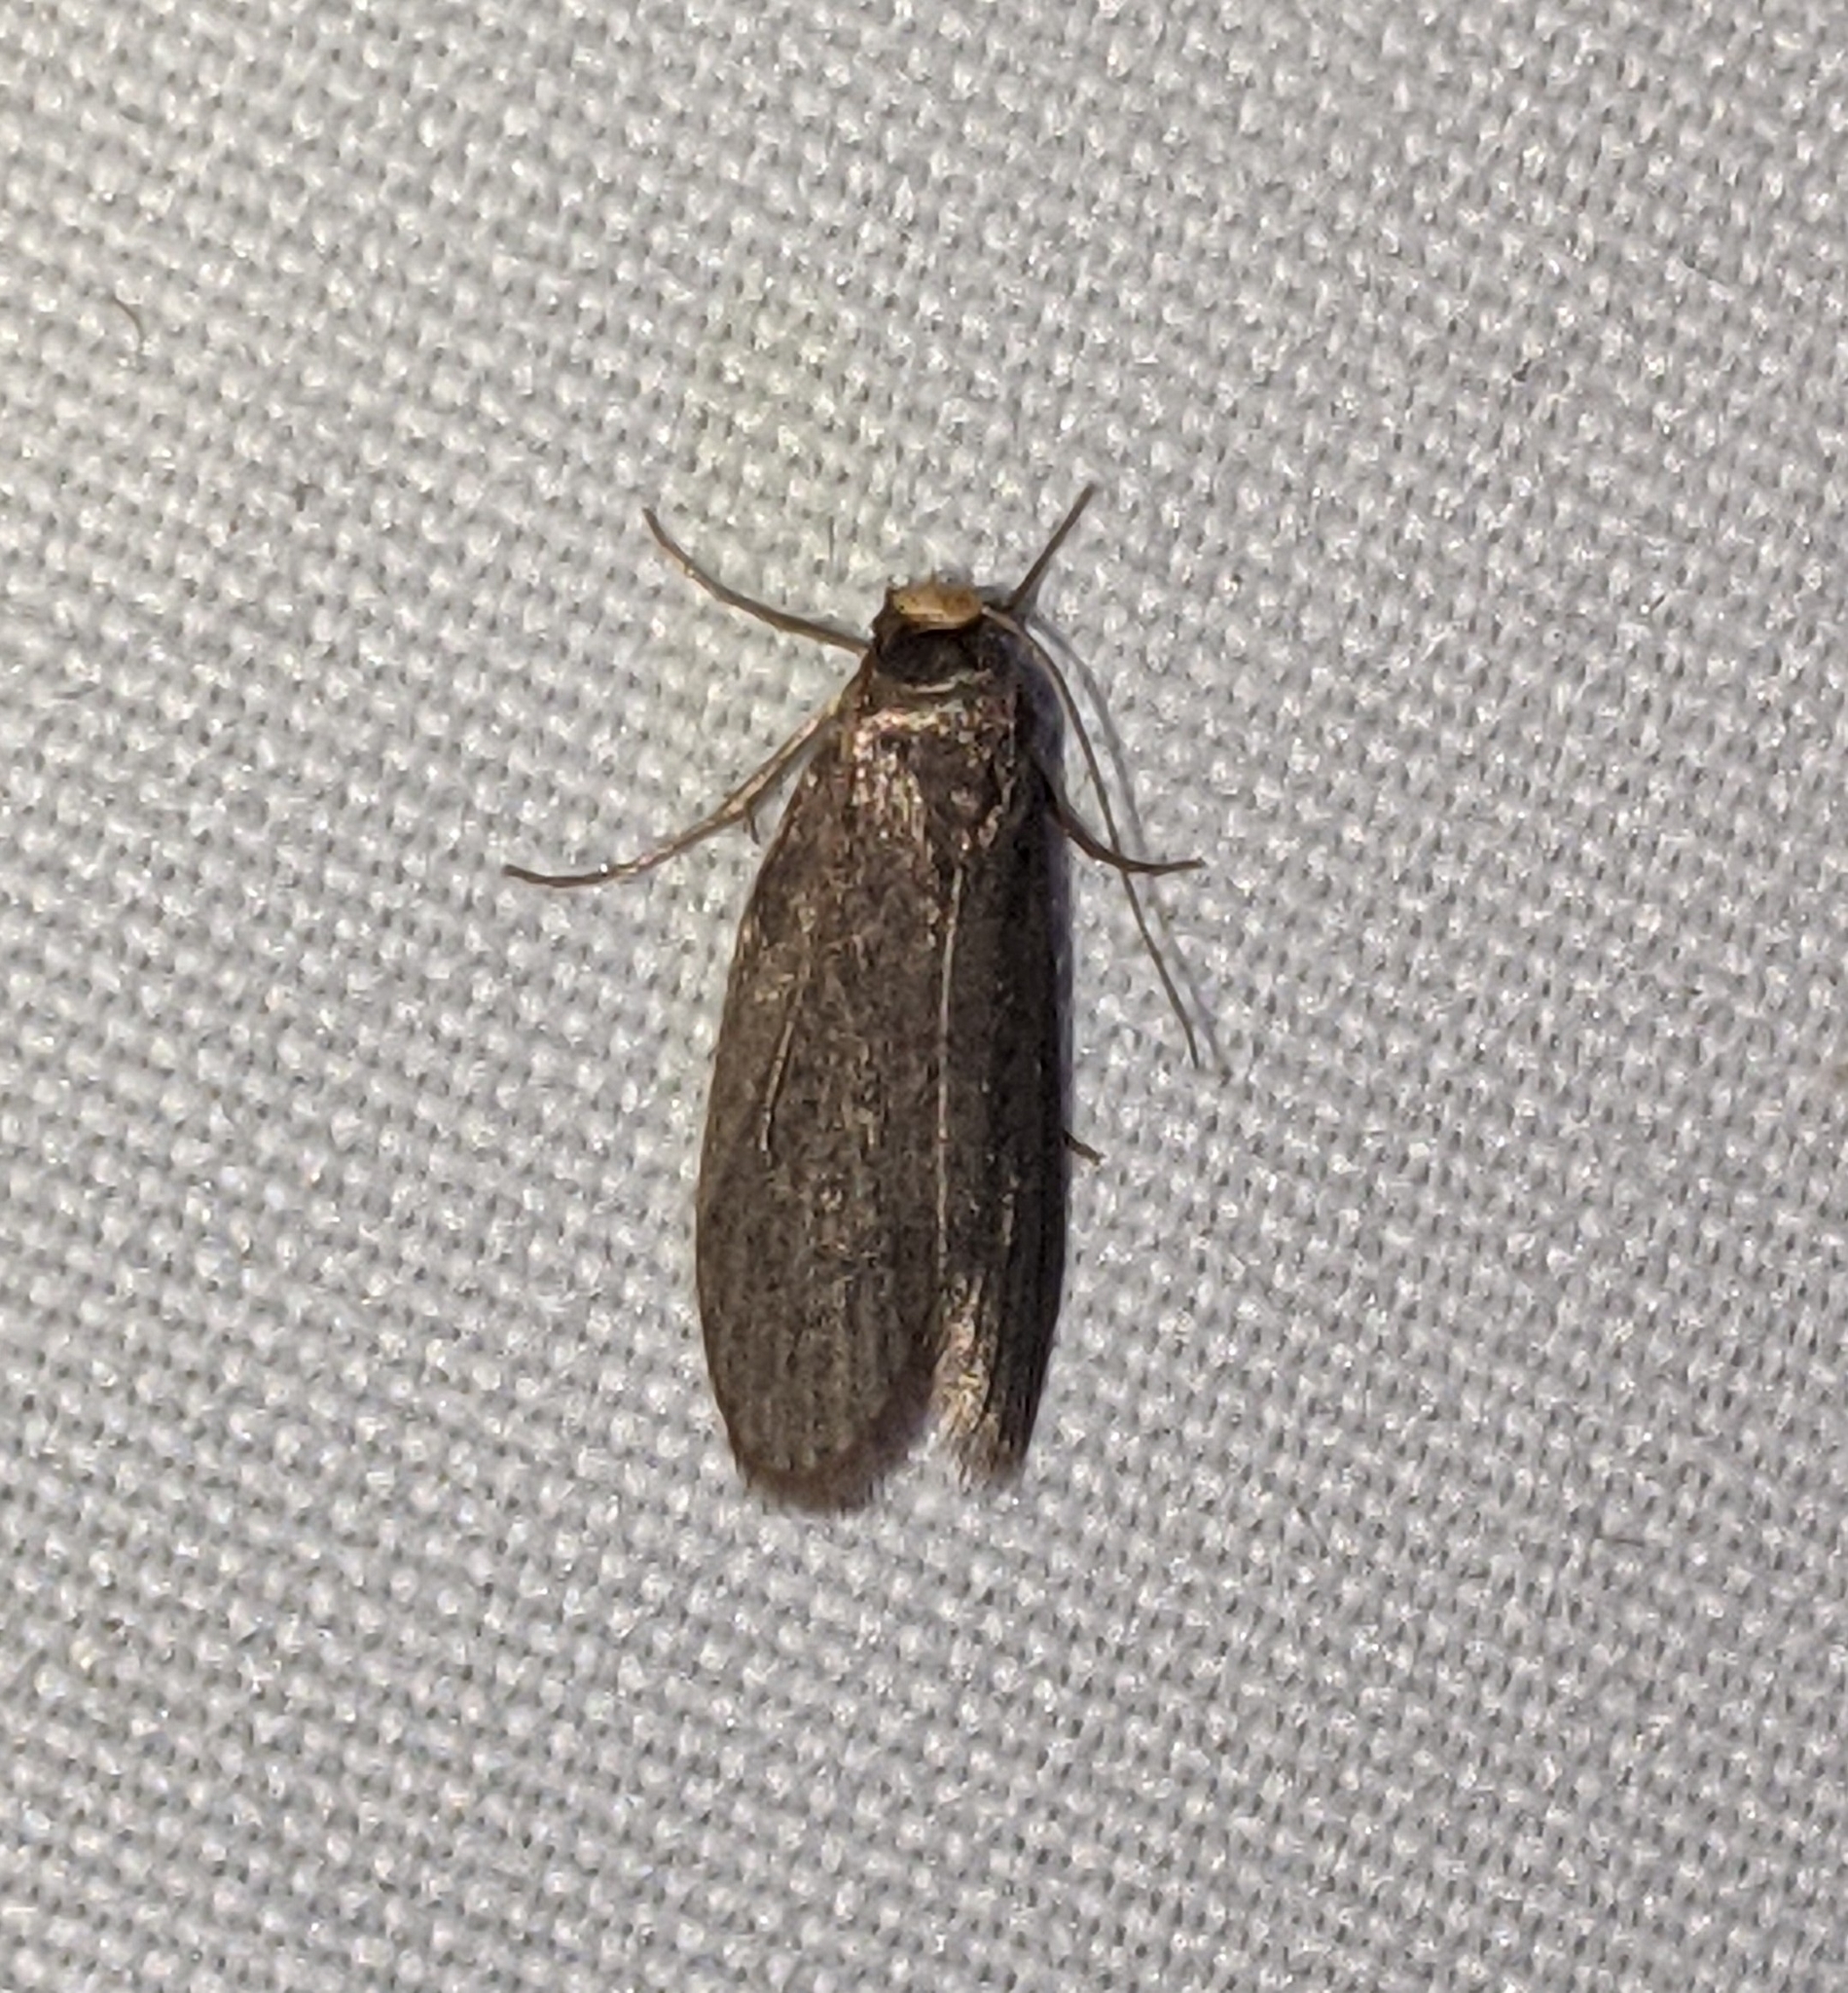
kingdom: Animalia
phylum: Arthropoda
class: Insecta
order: Lepidoptera
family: Pyralidae
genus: Achroia
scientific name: Achroia grisella
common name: Lesser wax moth
